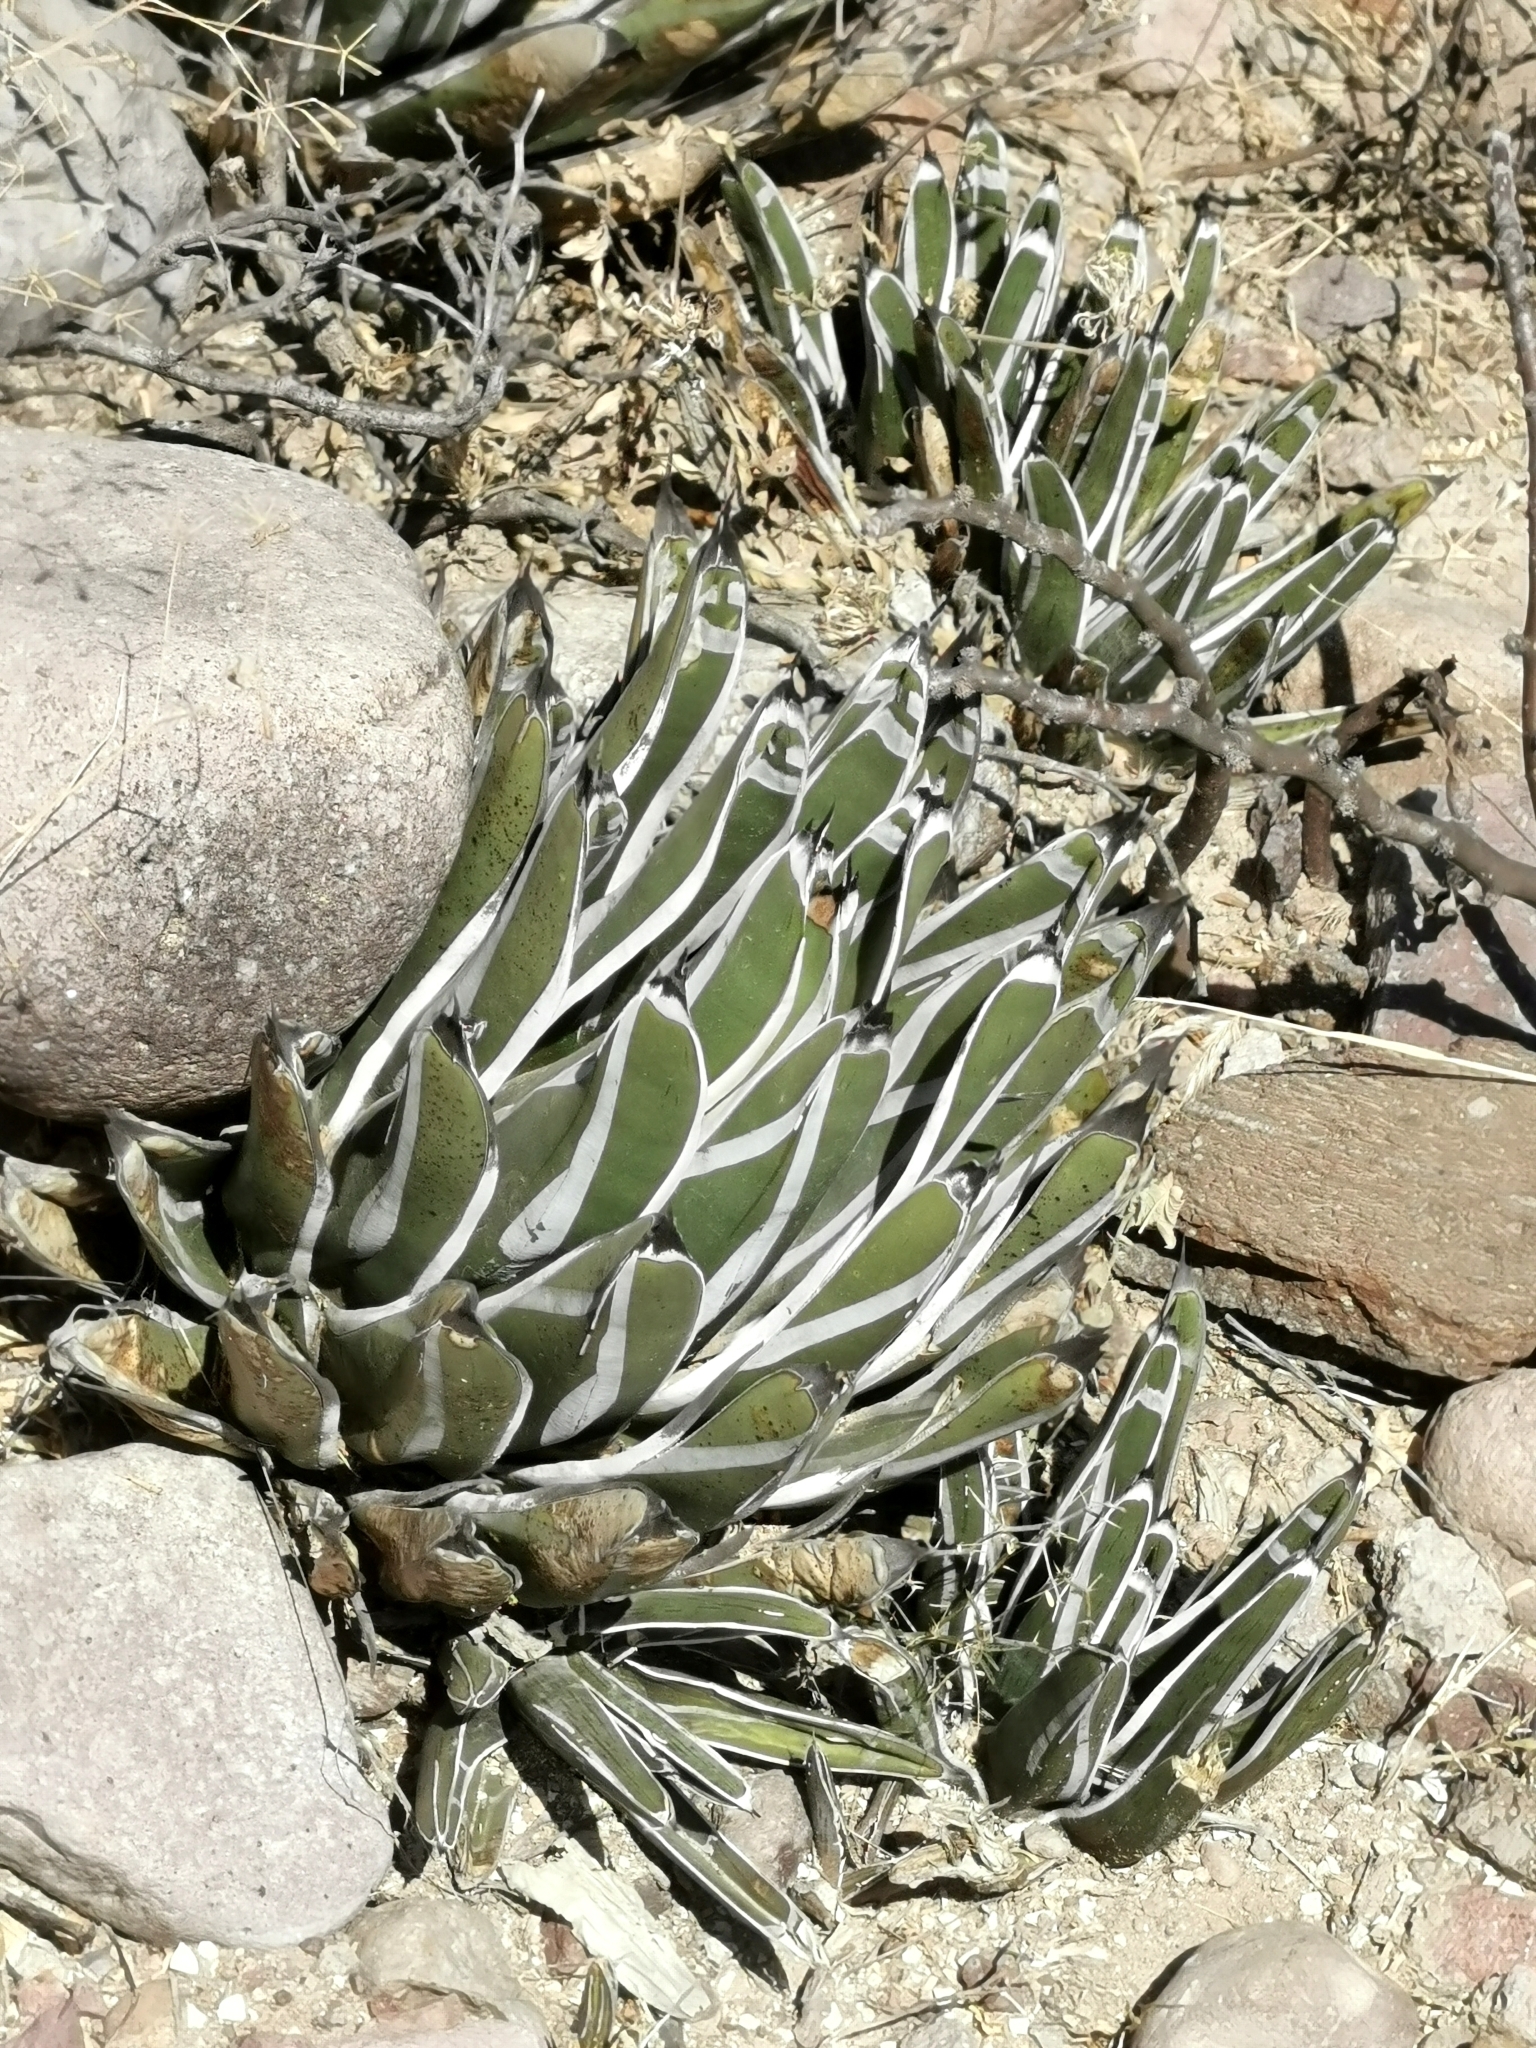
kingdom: Plantae
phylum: Tracheophyta
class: Liliopsida
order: Asparagales
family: Asparagaceae
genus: Agave
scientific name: Agave pintilla
